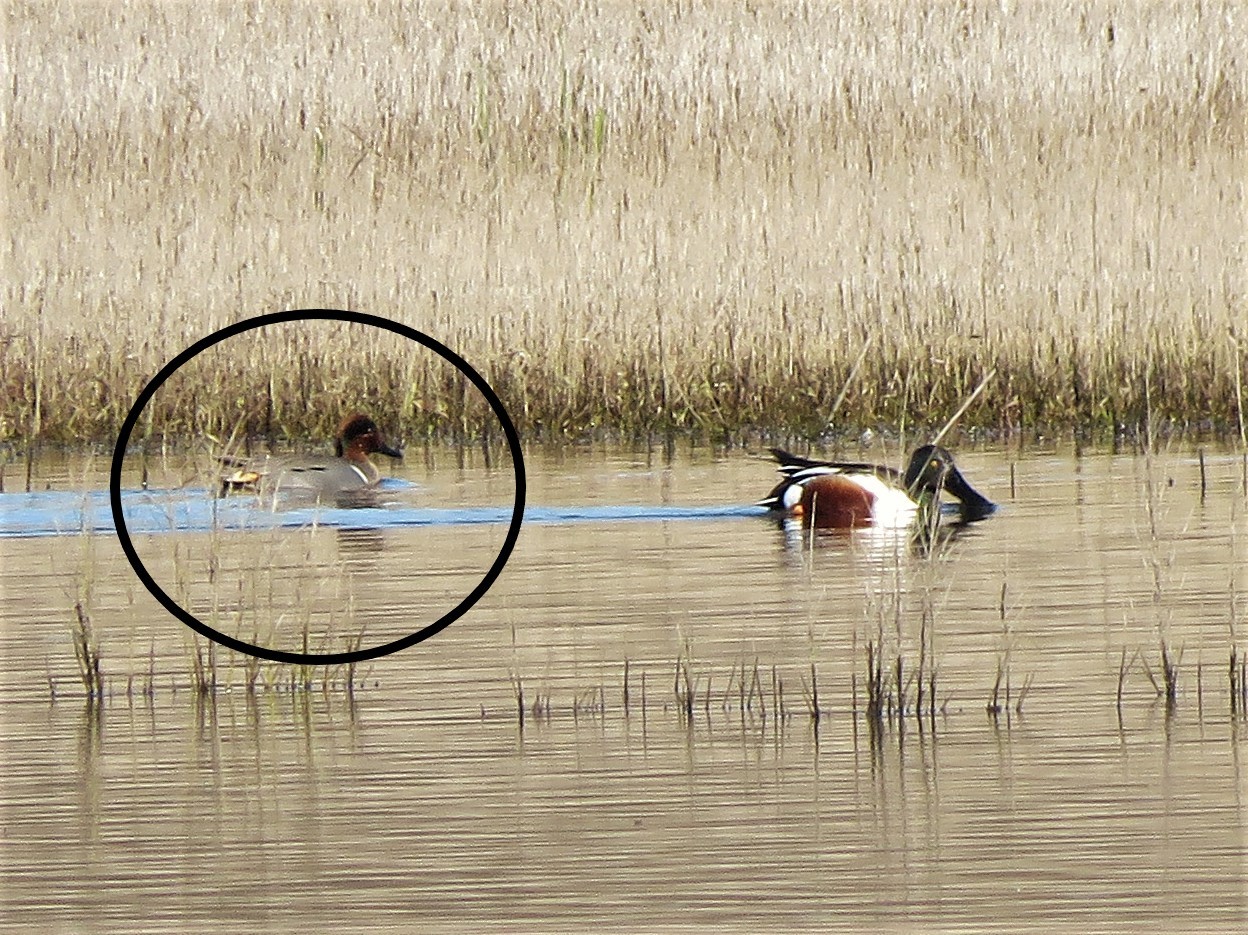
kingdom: Animalia
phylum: Chordata
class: Aves
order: Anseriformes
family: Anatidae
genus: Anas
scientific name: Anas crecca
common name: Eurasian teal
